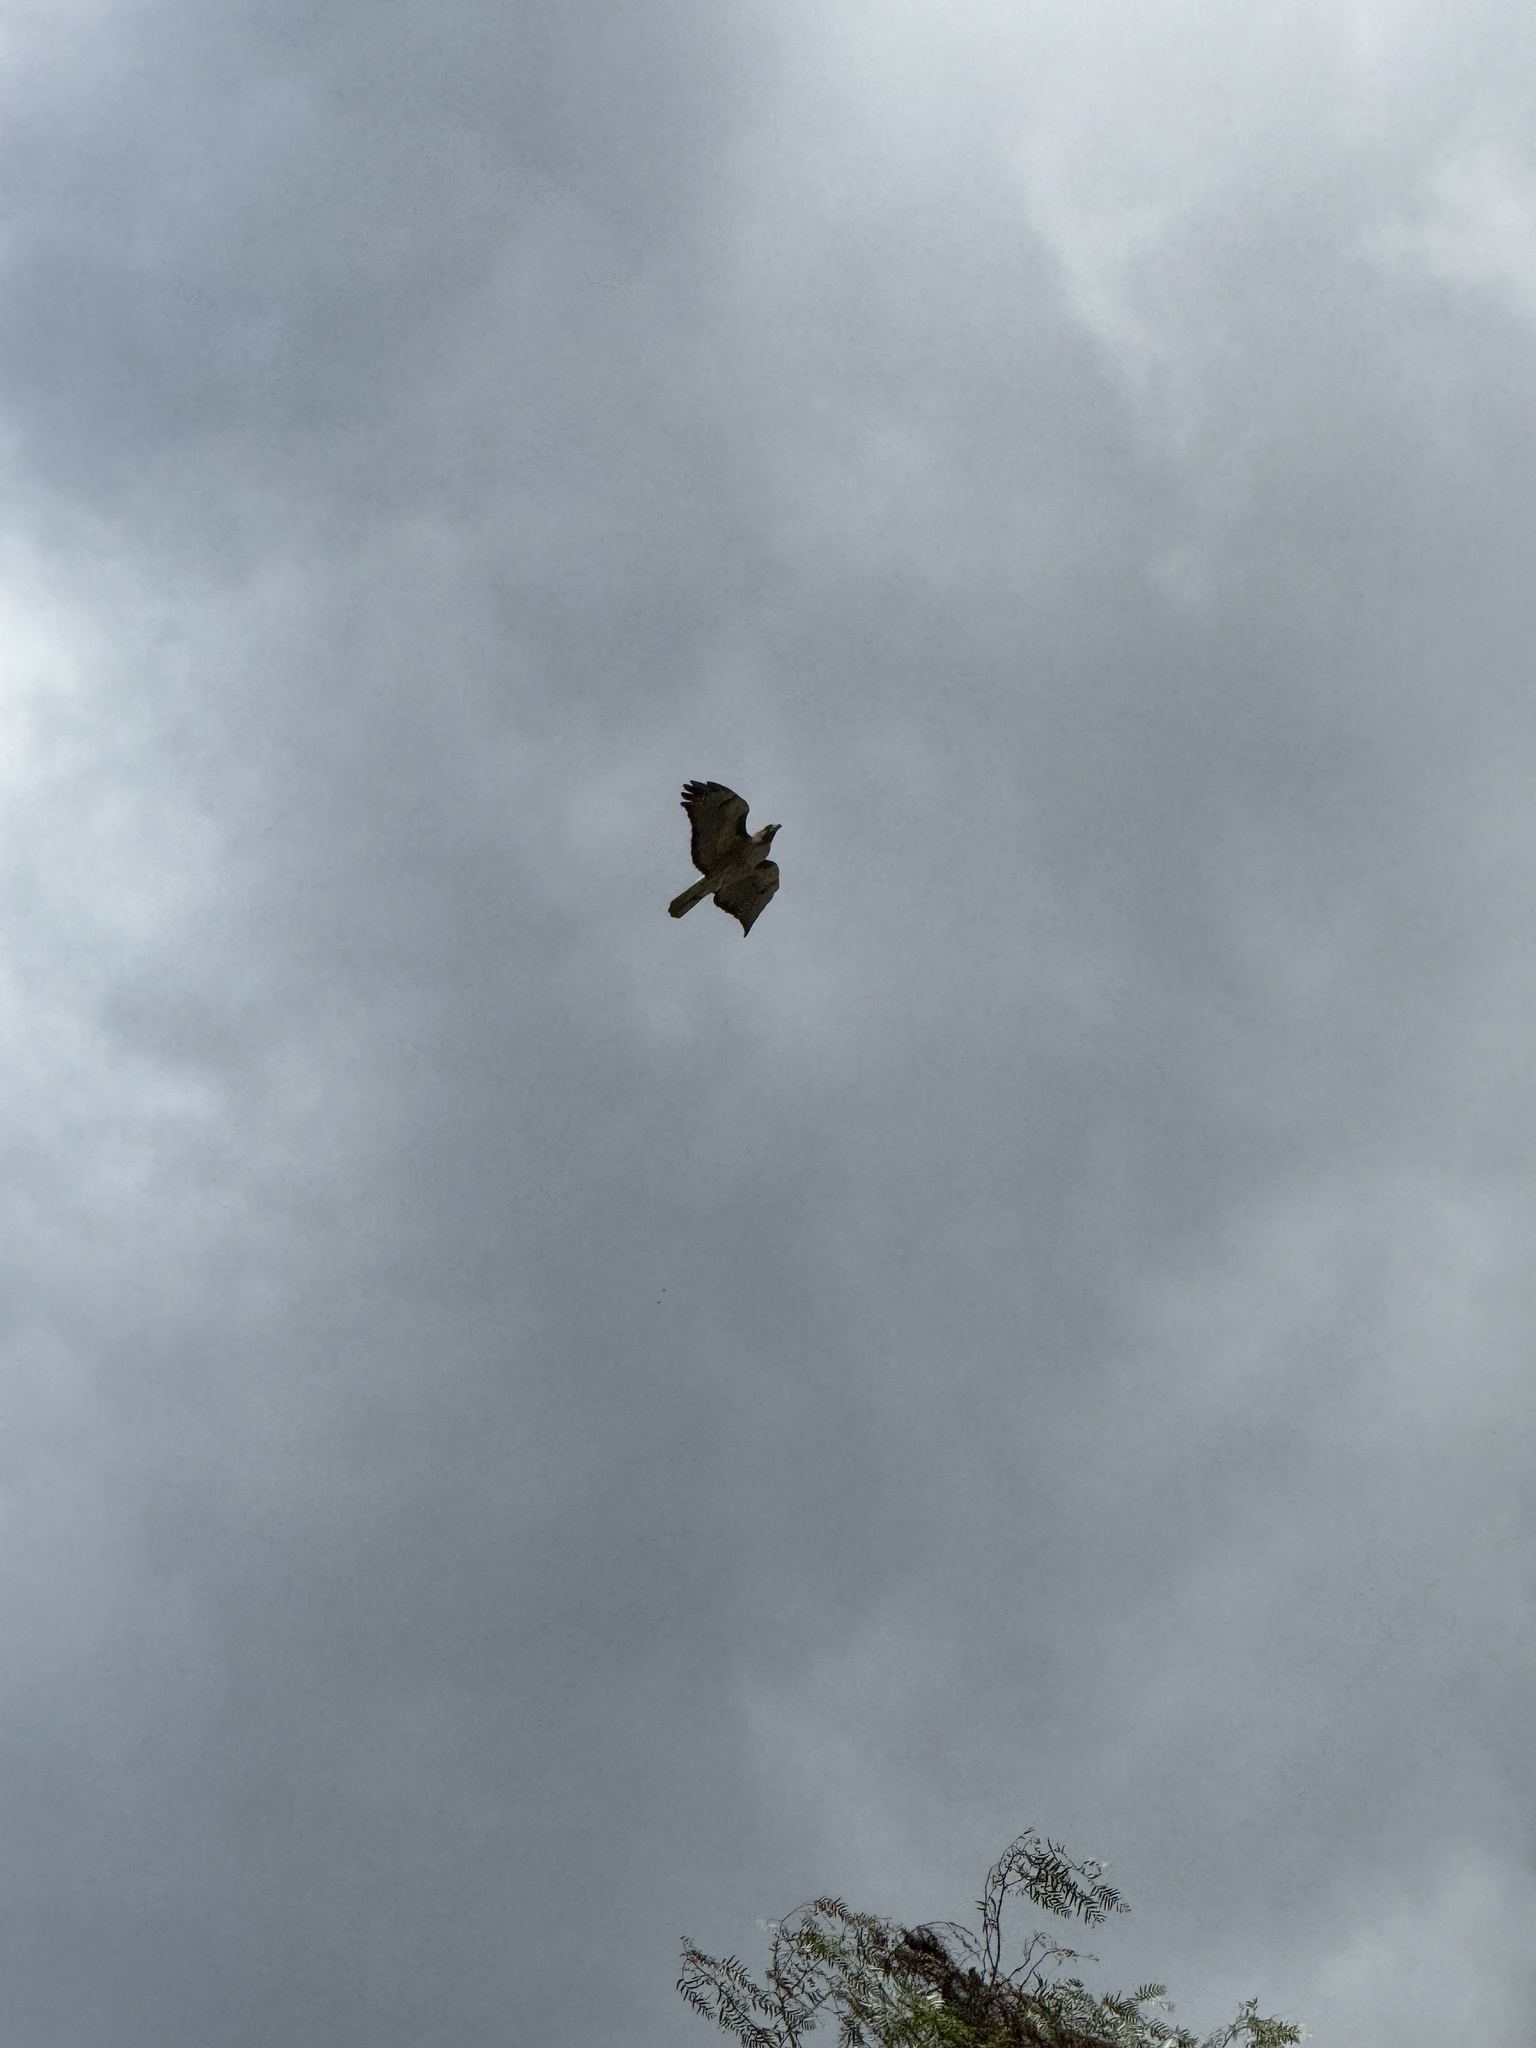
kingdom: Animalia
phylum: Chordata
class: Aves
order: Accipitriformes
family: Accipitridae
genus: Buteo
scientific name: Buteo jamaicensis
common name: Red-tailed hawk
